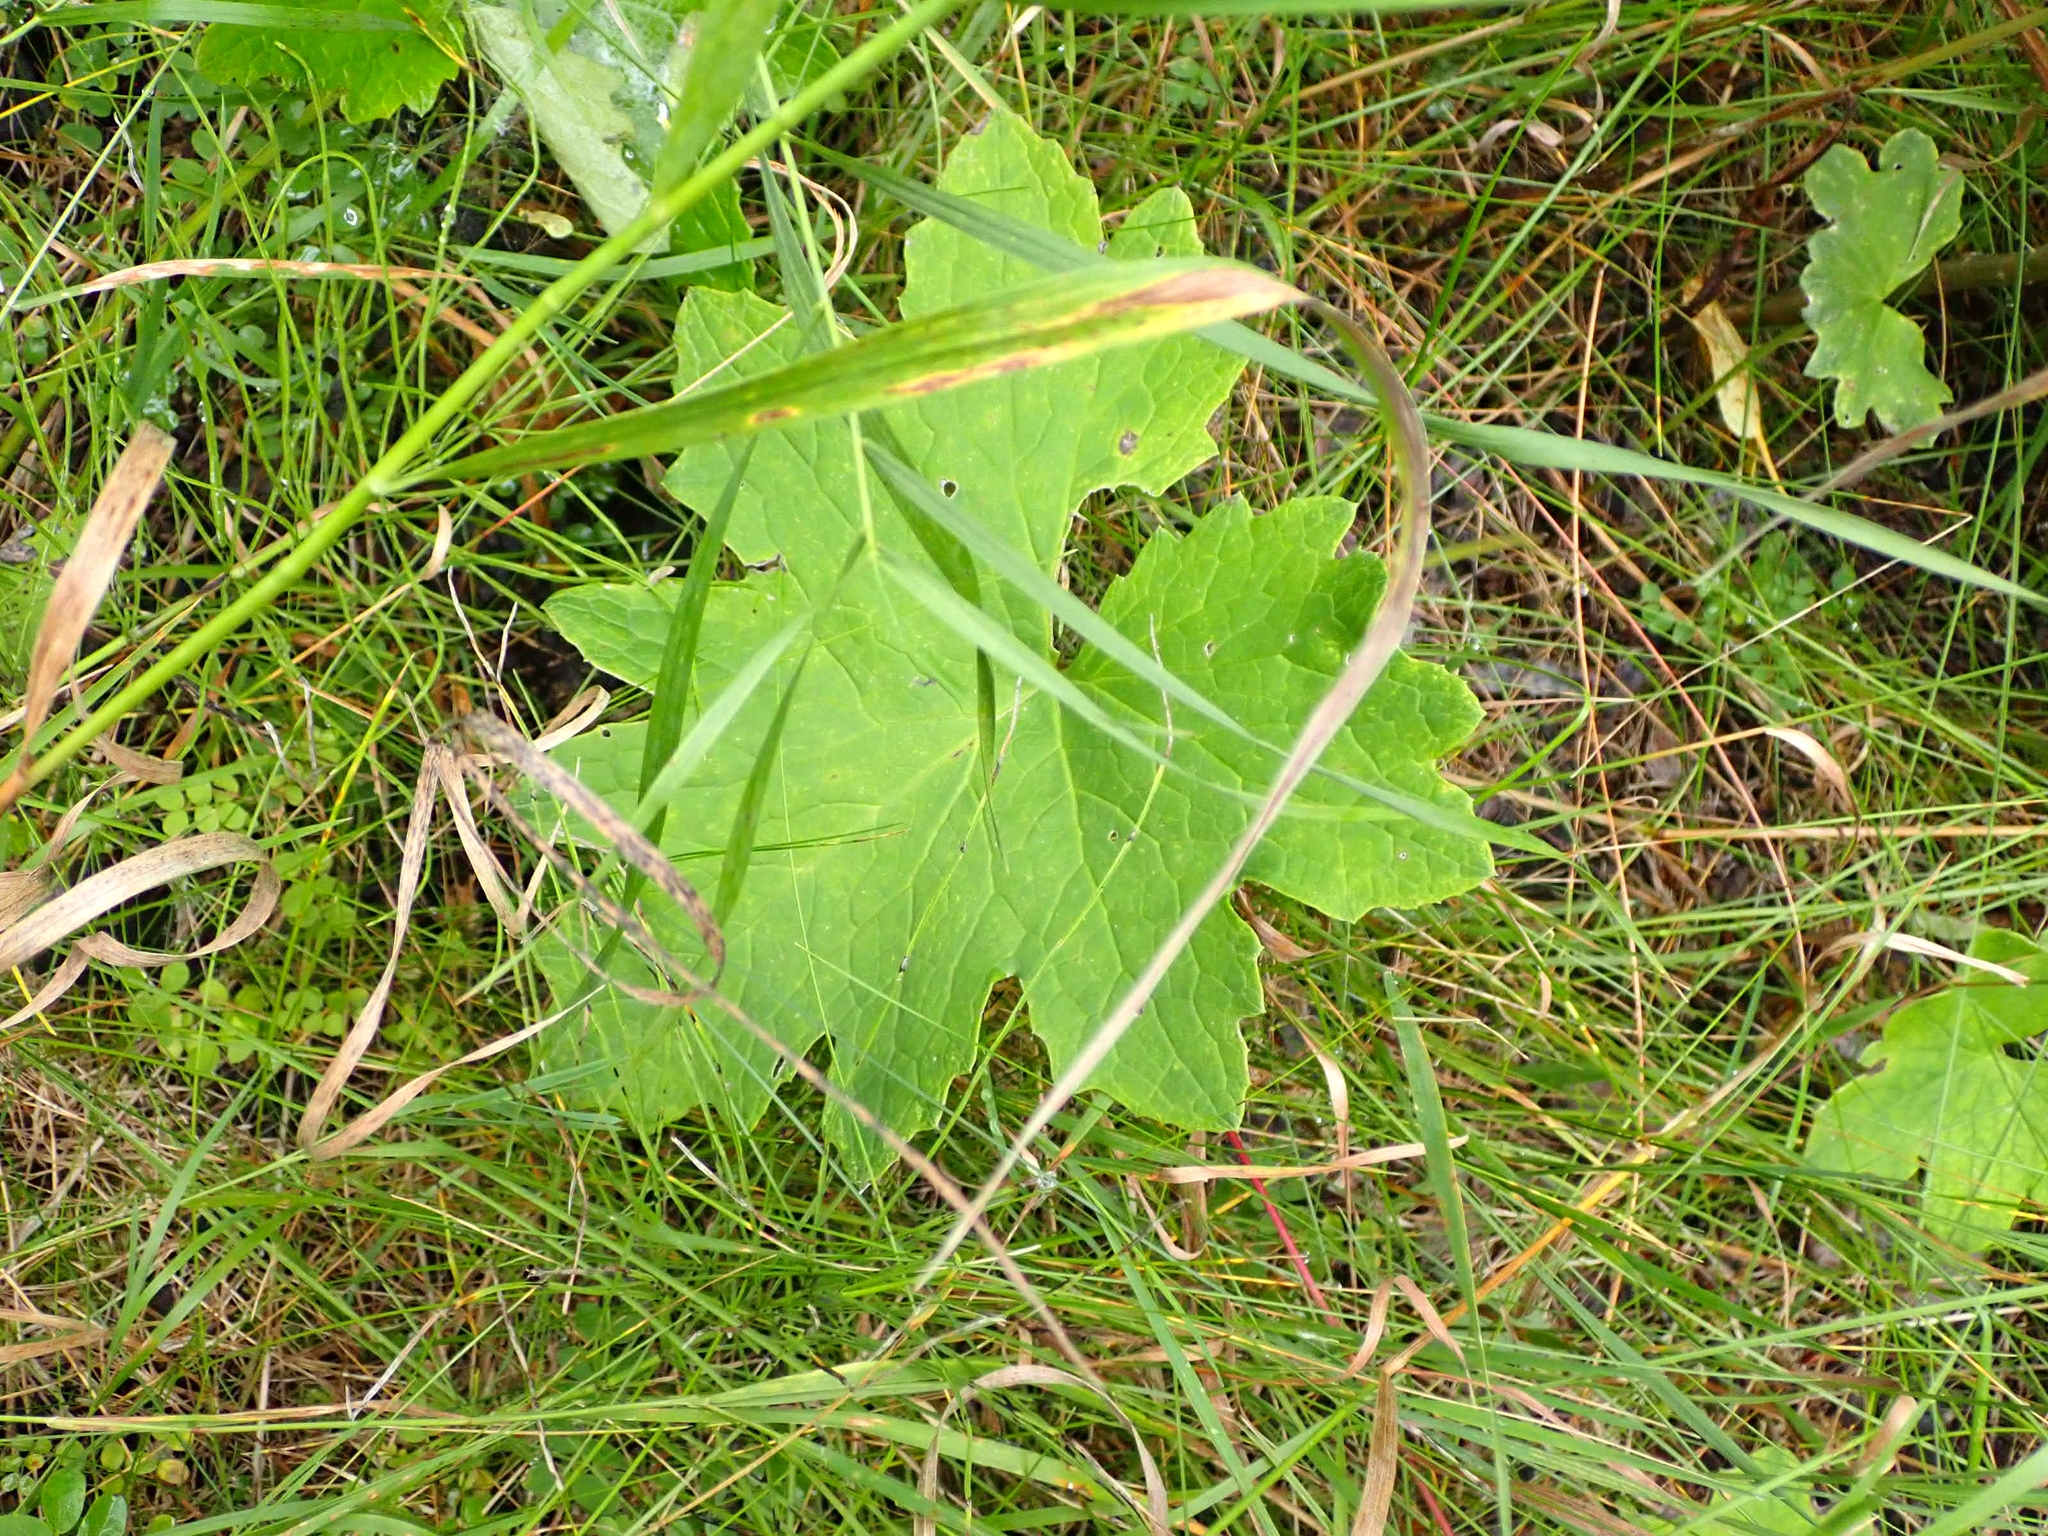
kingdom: Plantae
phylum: Tracheophyta
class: Magnoliopsida
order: Asterales
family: Asteraceae
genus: Petasites
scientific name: Petasites frigidus
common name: Arctic butterbur
